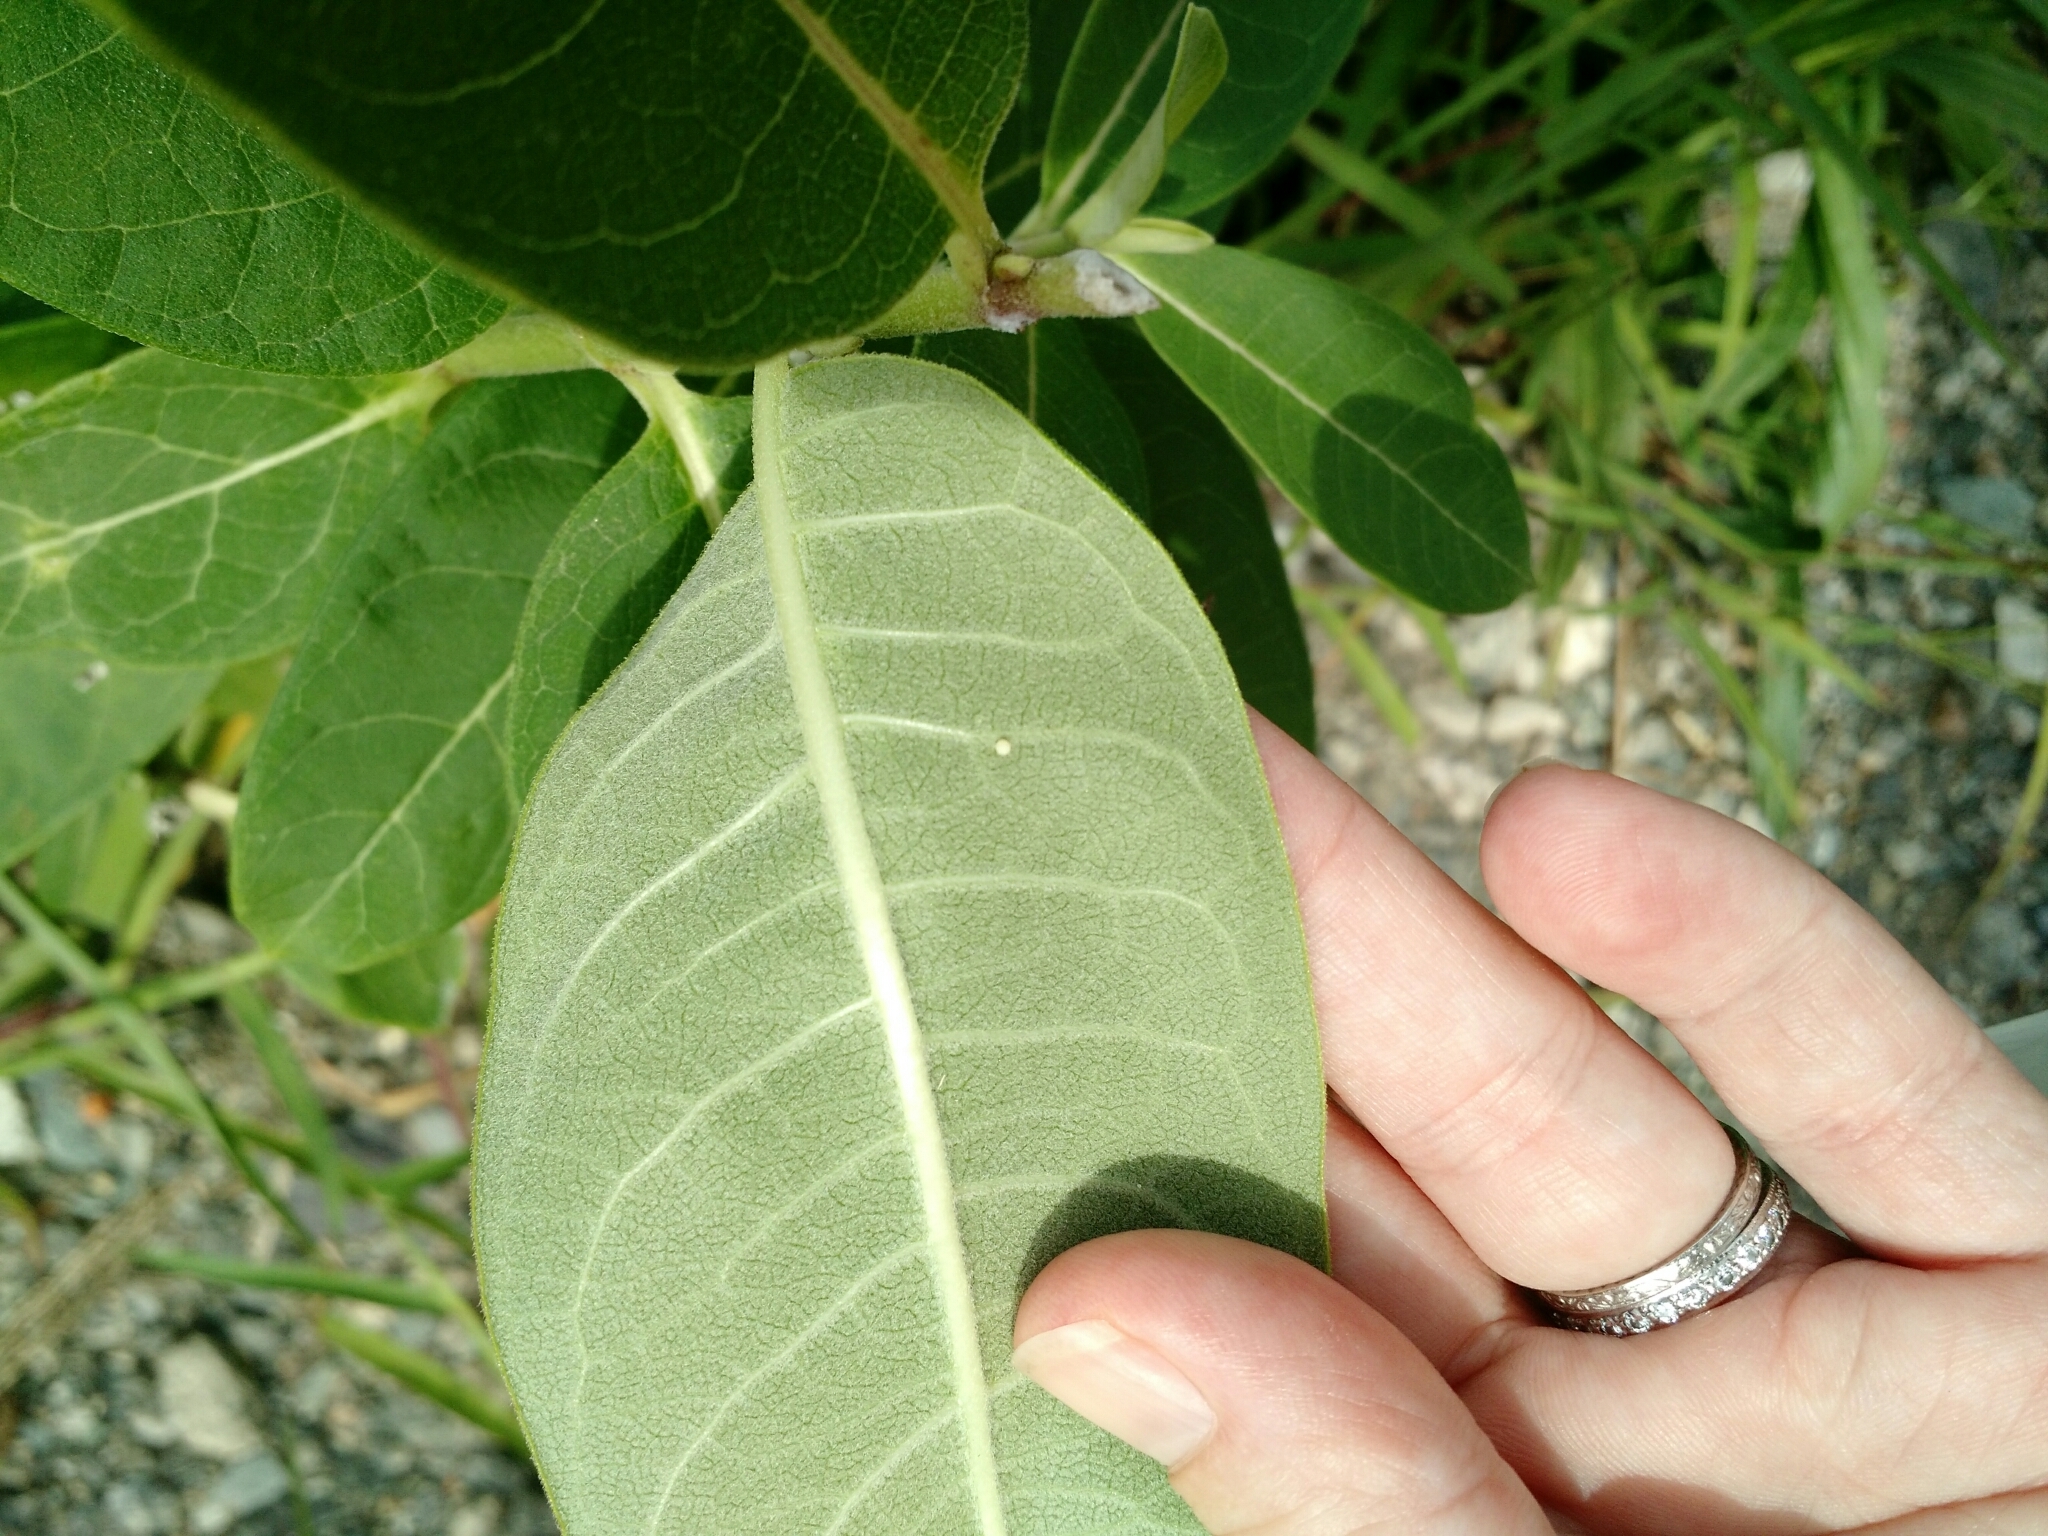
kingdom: Plantae
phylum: Tracheophyta
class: Magnoliopsida
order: Gentianales
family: Apocynaceae
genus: Asclepias
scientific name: Asclepias syriaca
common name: Common milkweed
